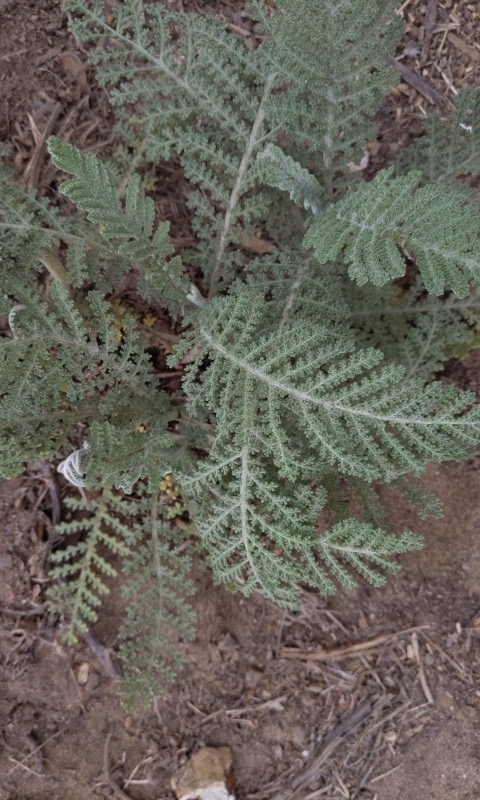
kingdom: Plantae
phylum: Tracheophyta
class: Magnoliopsida
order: Asterales
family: Asteraceae
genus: Tanacetum
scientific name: Tanacetum bipinnatum
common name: Dwarf tansy
